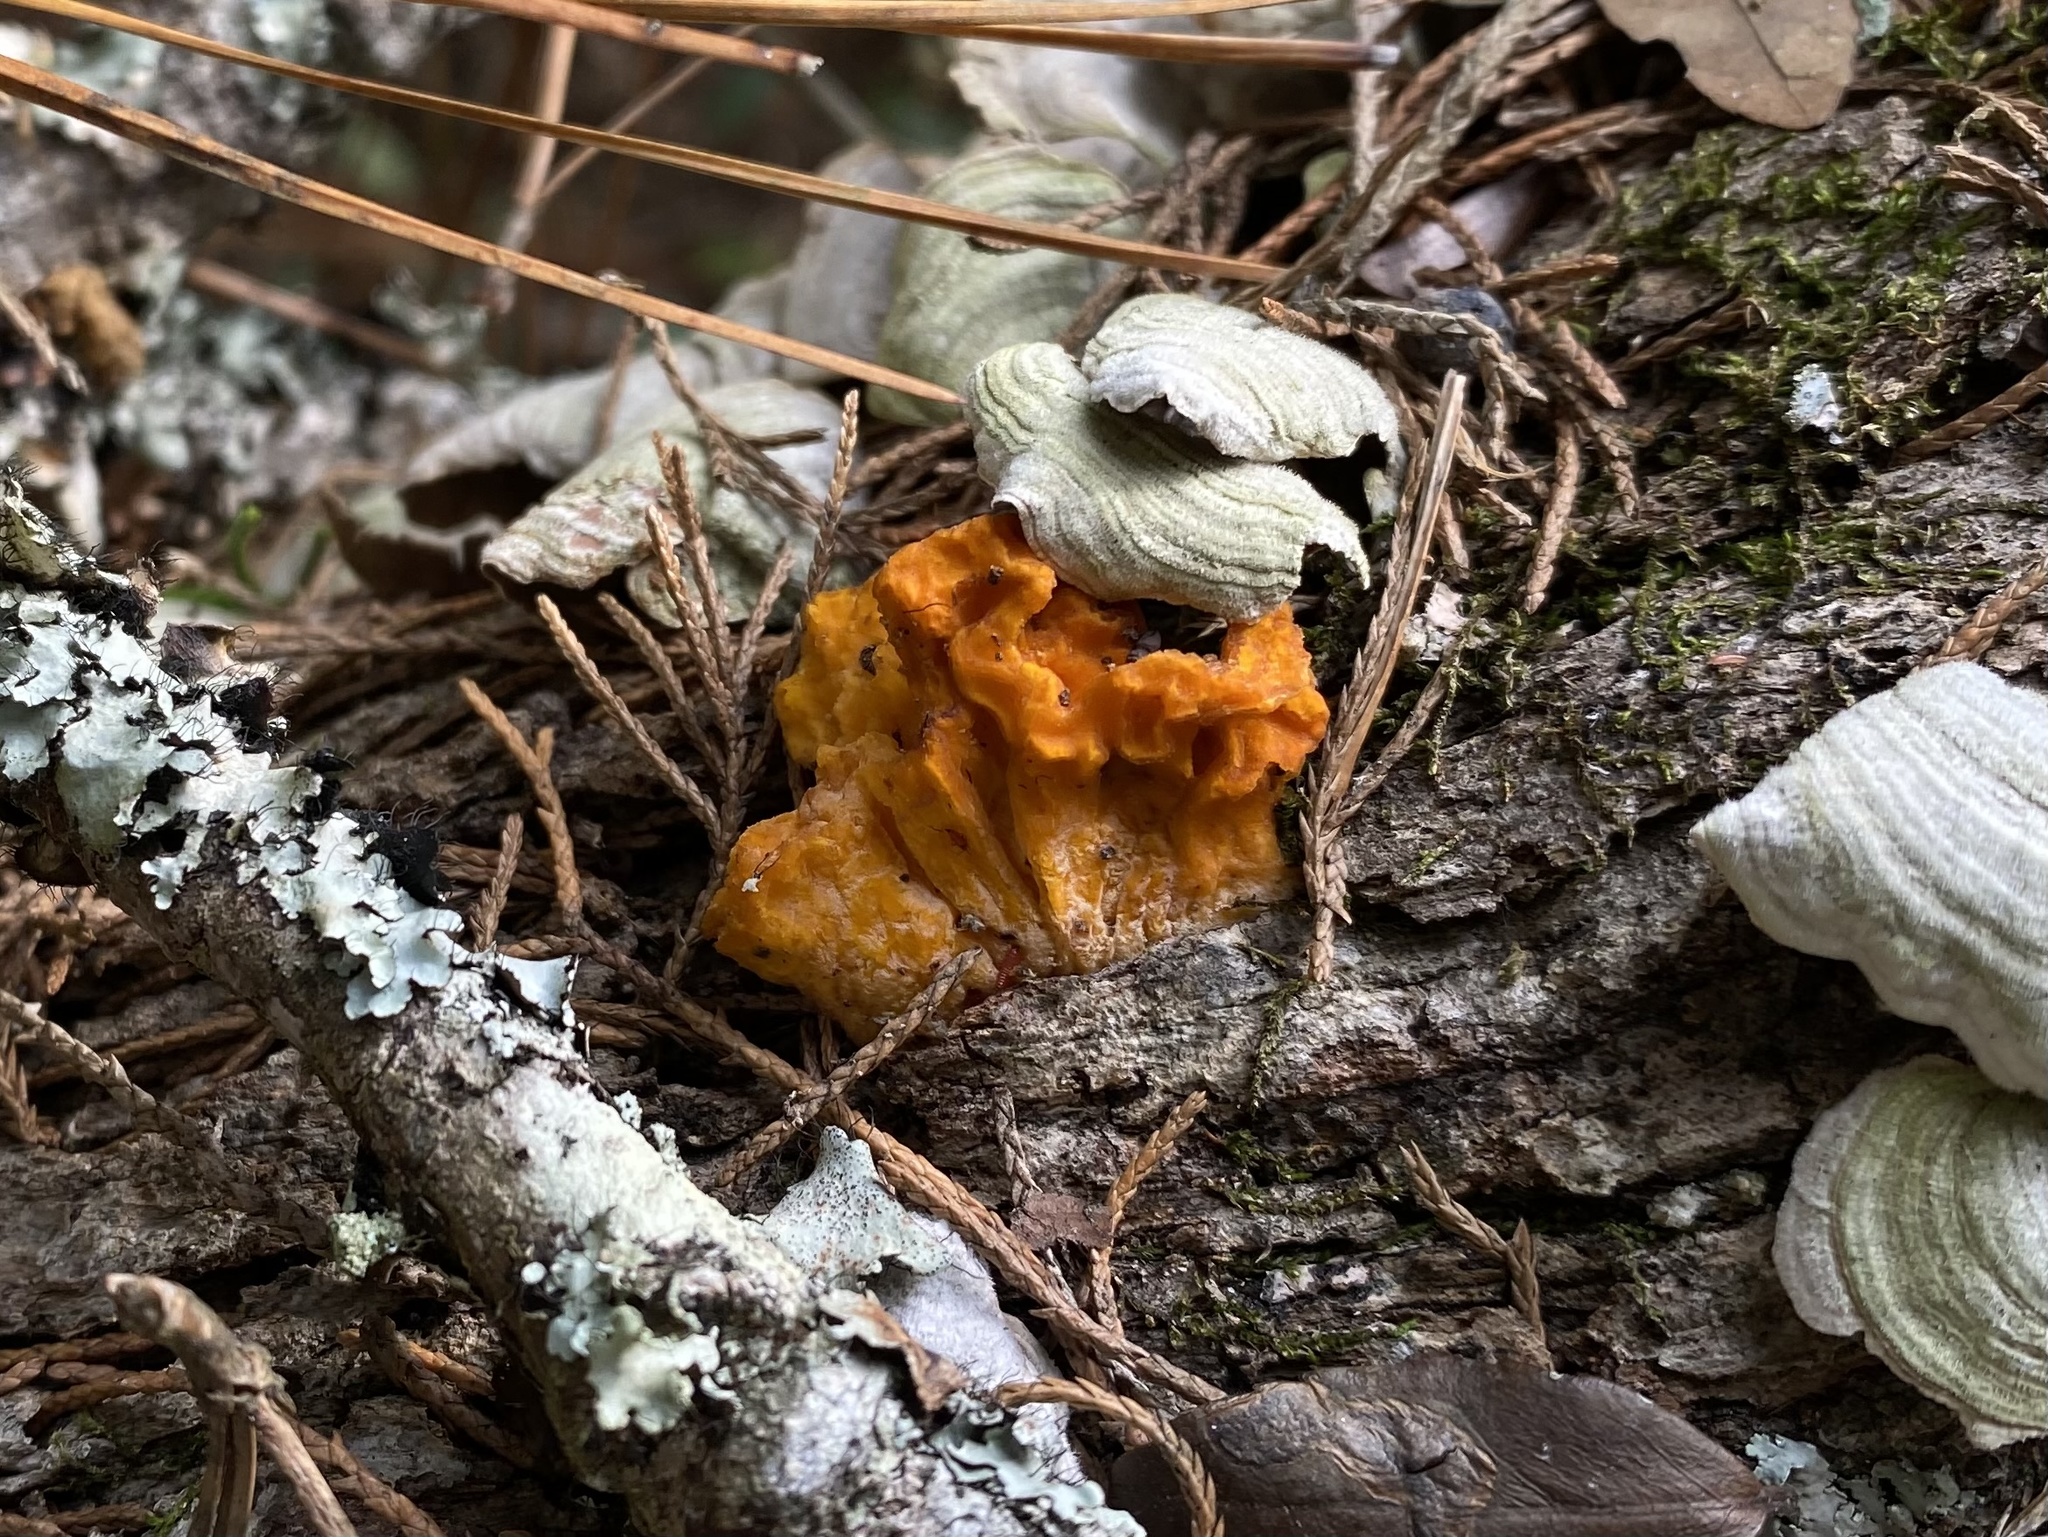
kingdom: Fungi
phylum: Basidiomycota
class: Tremellomycetes
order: Tremellales
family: Tremellaceae
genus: Tremella
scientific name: Tremella mesenterica
